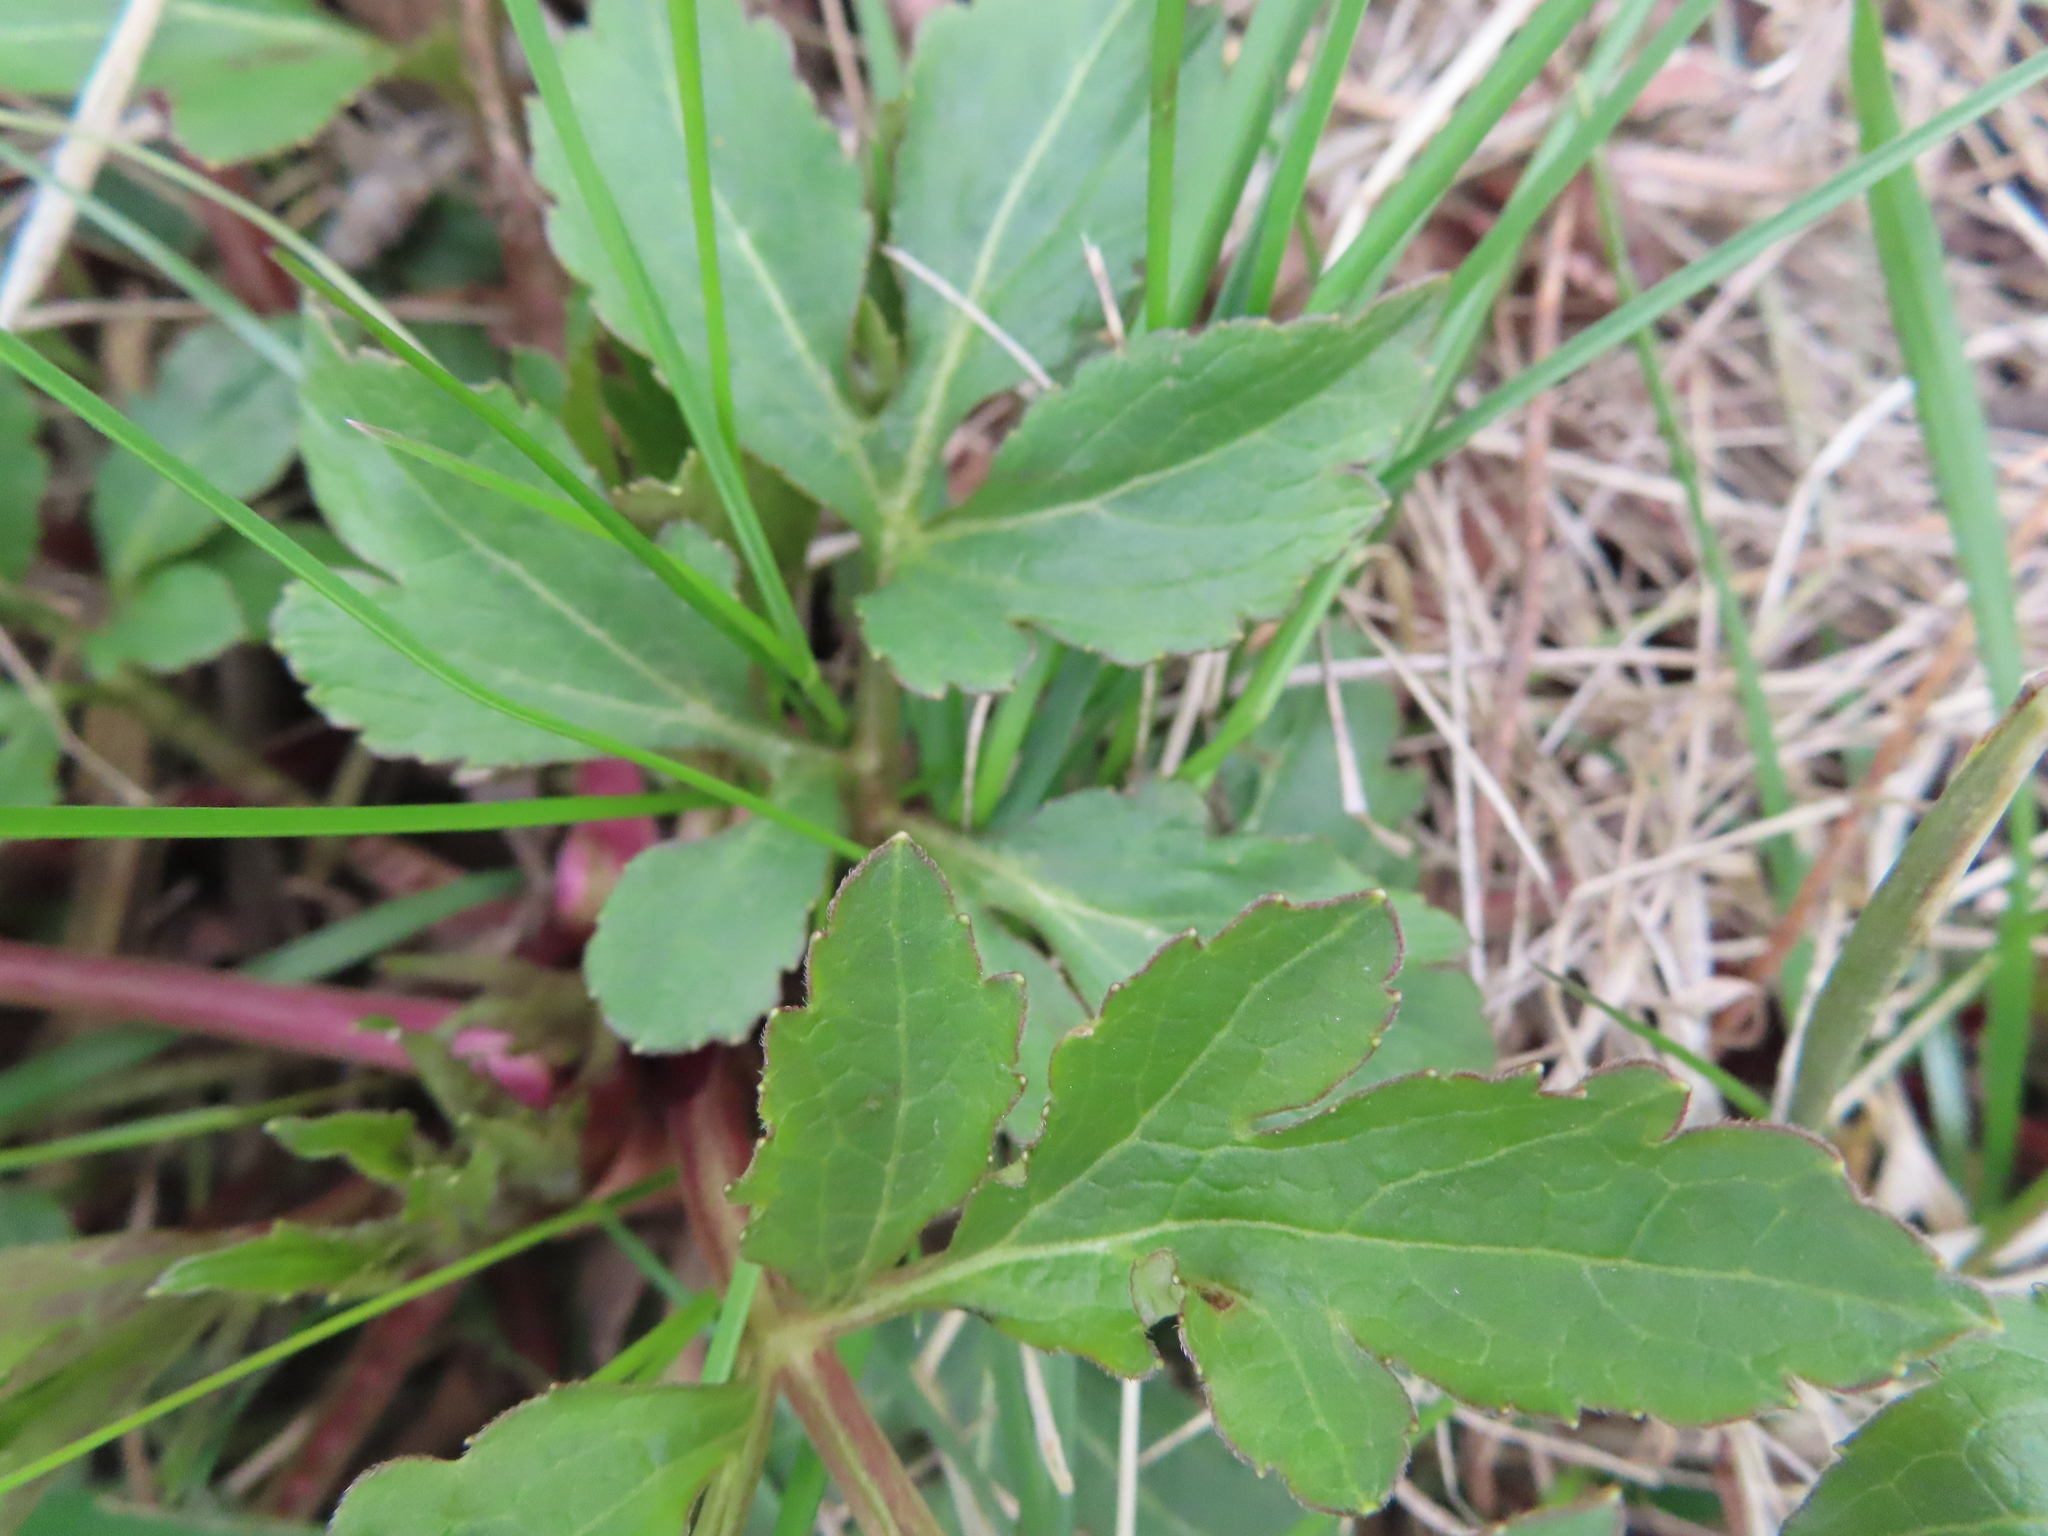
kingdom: Plantae
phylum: Tracheophyta
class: Magnoliopsida
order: Asterales
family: Asteraceae
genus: Rudbeckia
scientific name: Rudbeckia laciniata
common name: Coneflower
